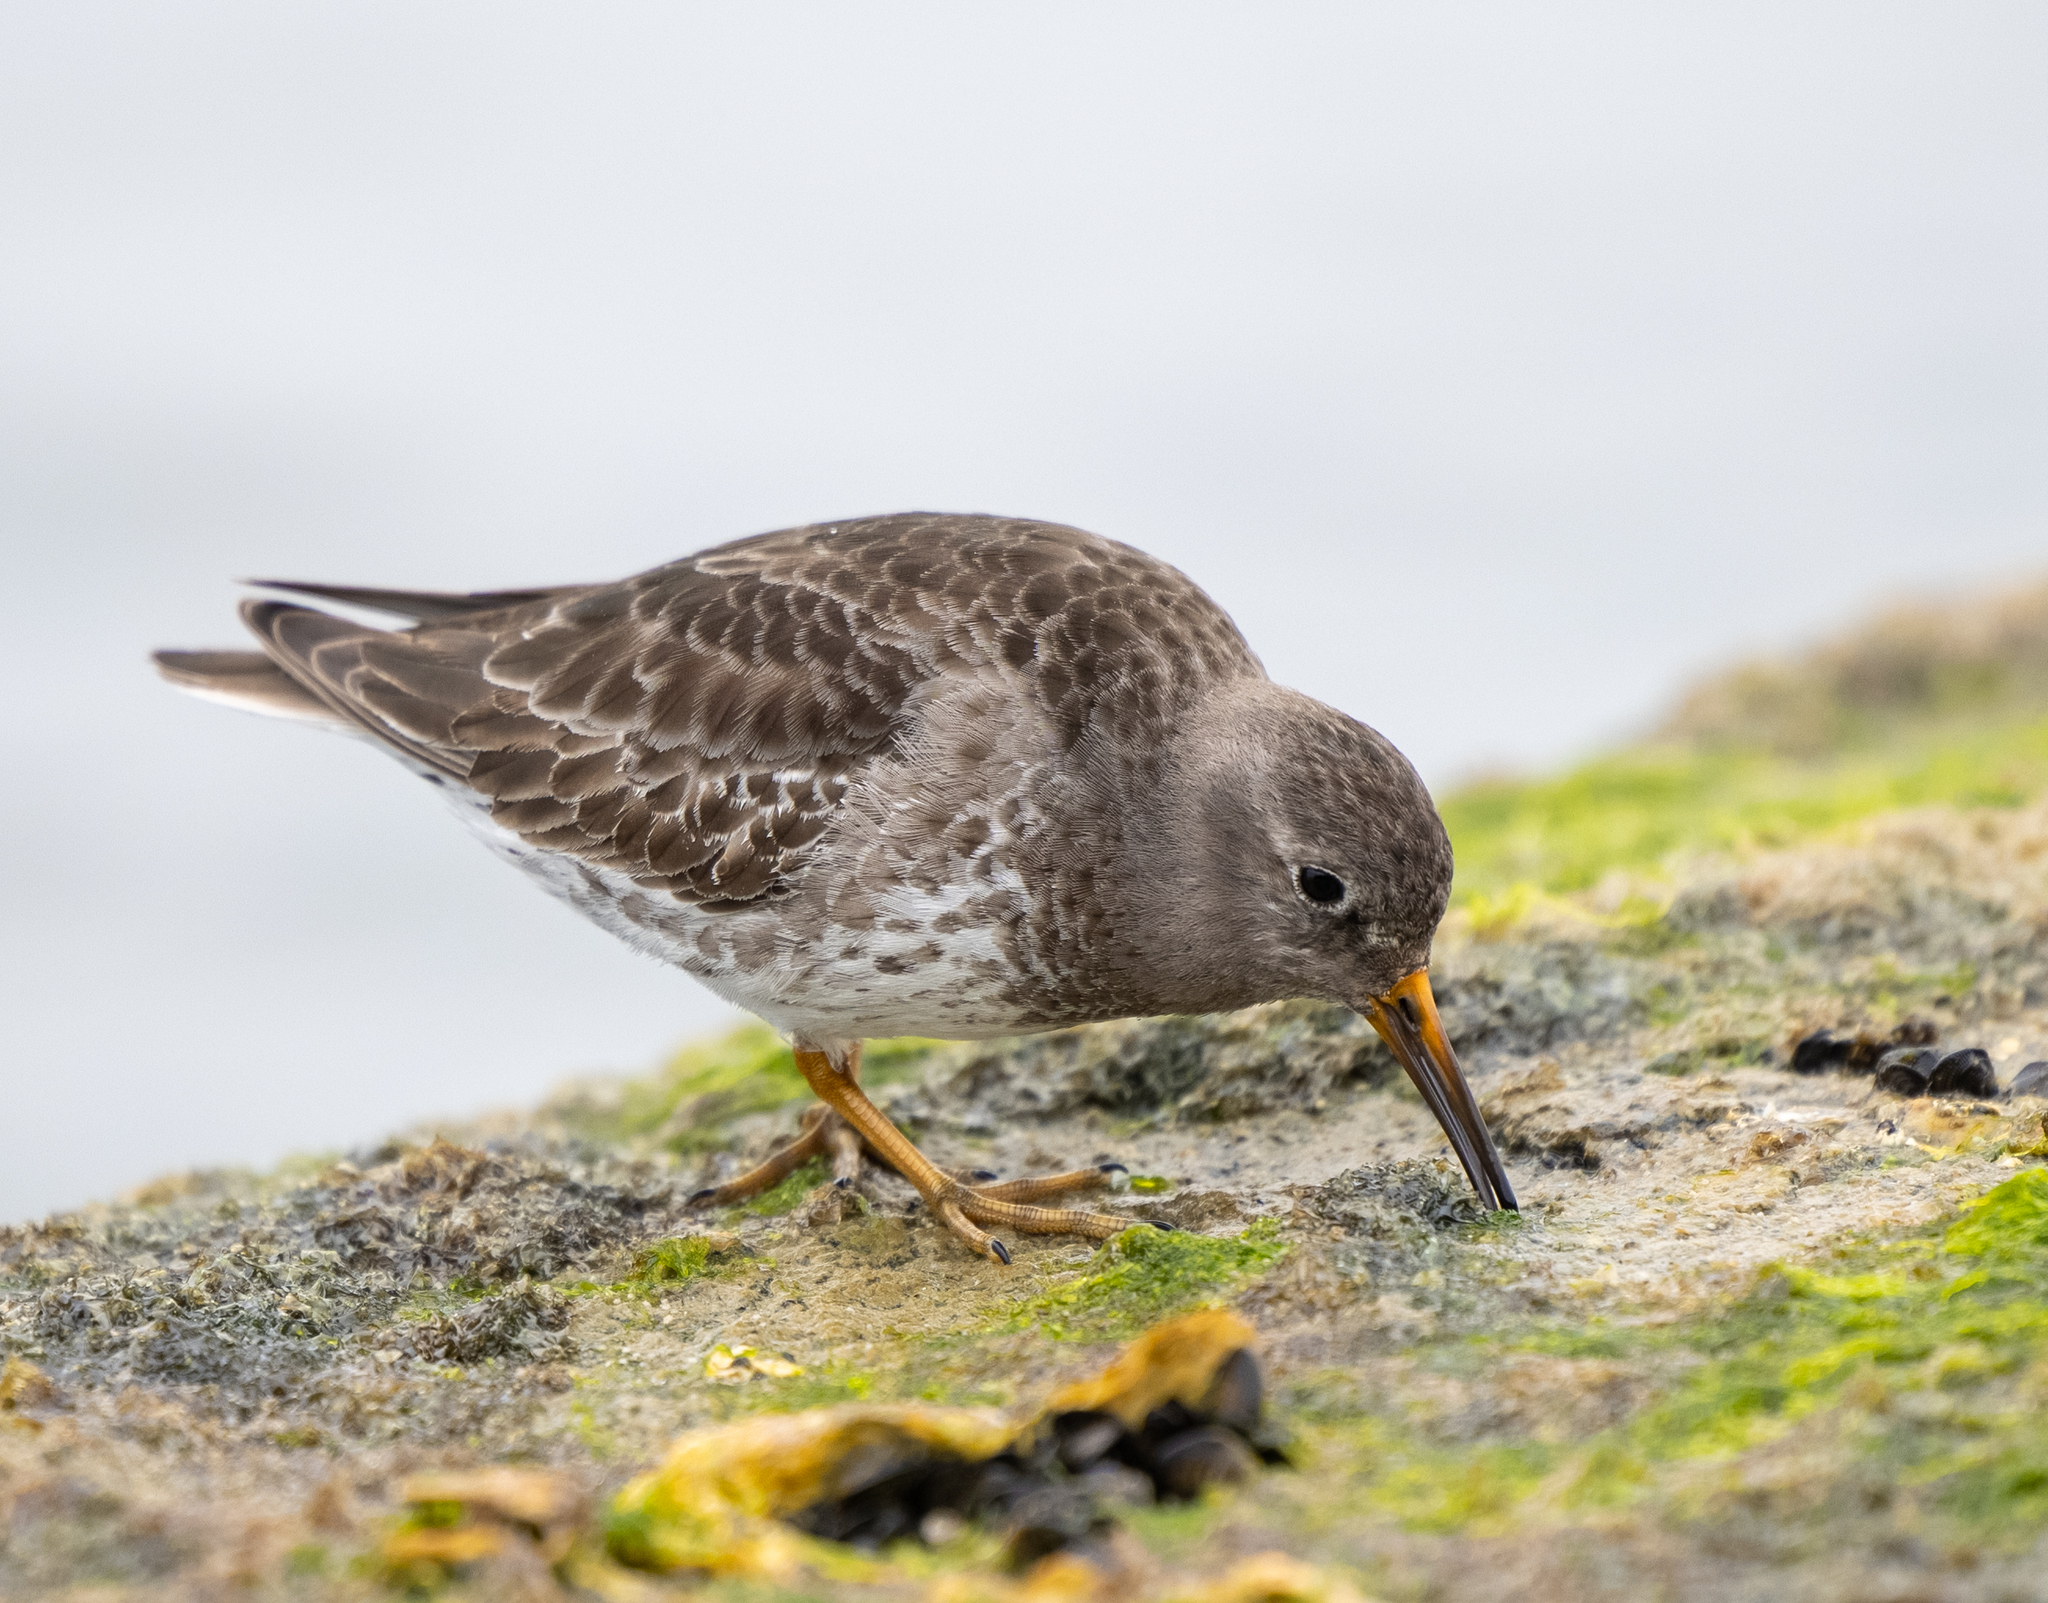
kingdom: Animalia
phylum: Chordata
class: Aves
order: Charadriiformes
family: Scolopacidae
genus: Calidris
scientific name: Calidris maritima
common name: Purple sandpiper
